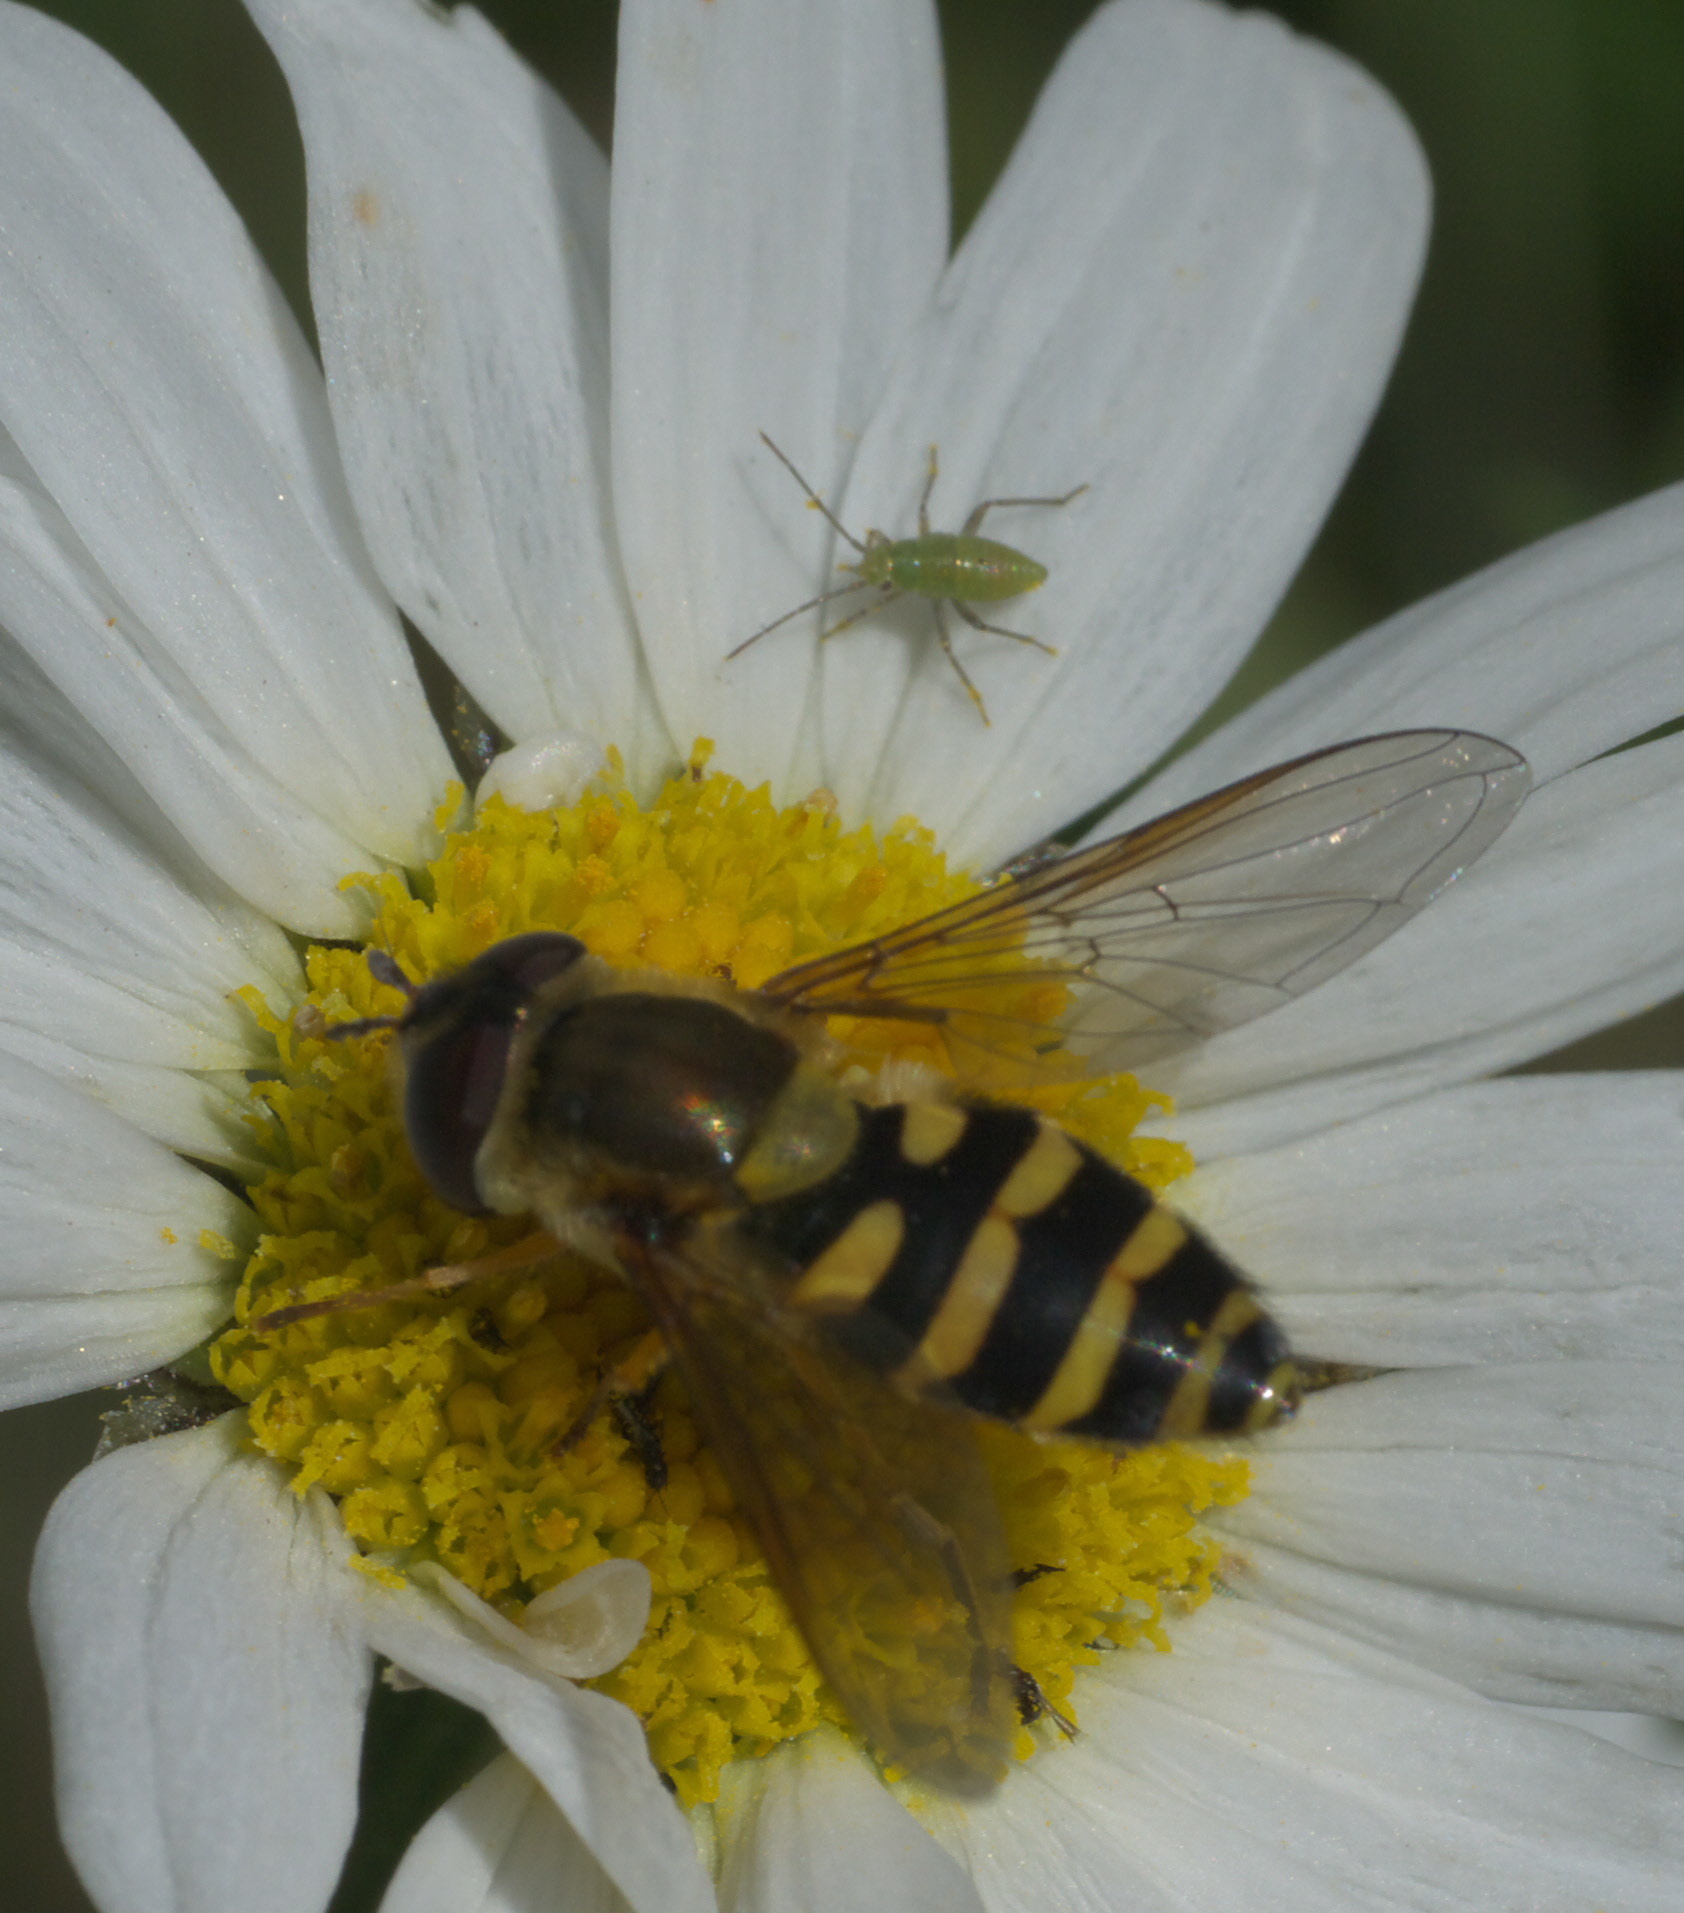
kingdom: Animalia
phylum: Arthropoda
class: Insecta
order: Diptera
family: Syrphidae
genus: Syrphus
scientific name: Syrphus
